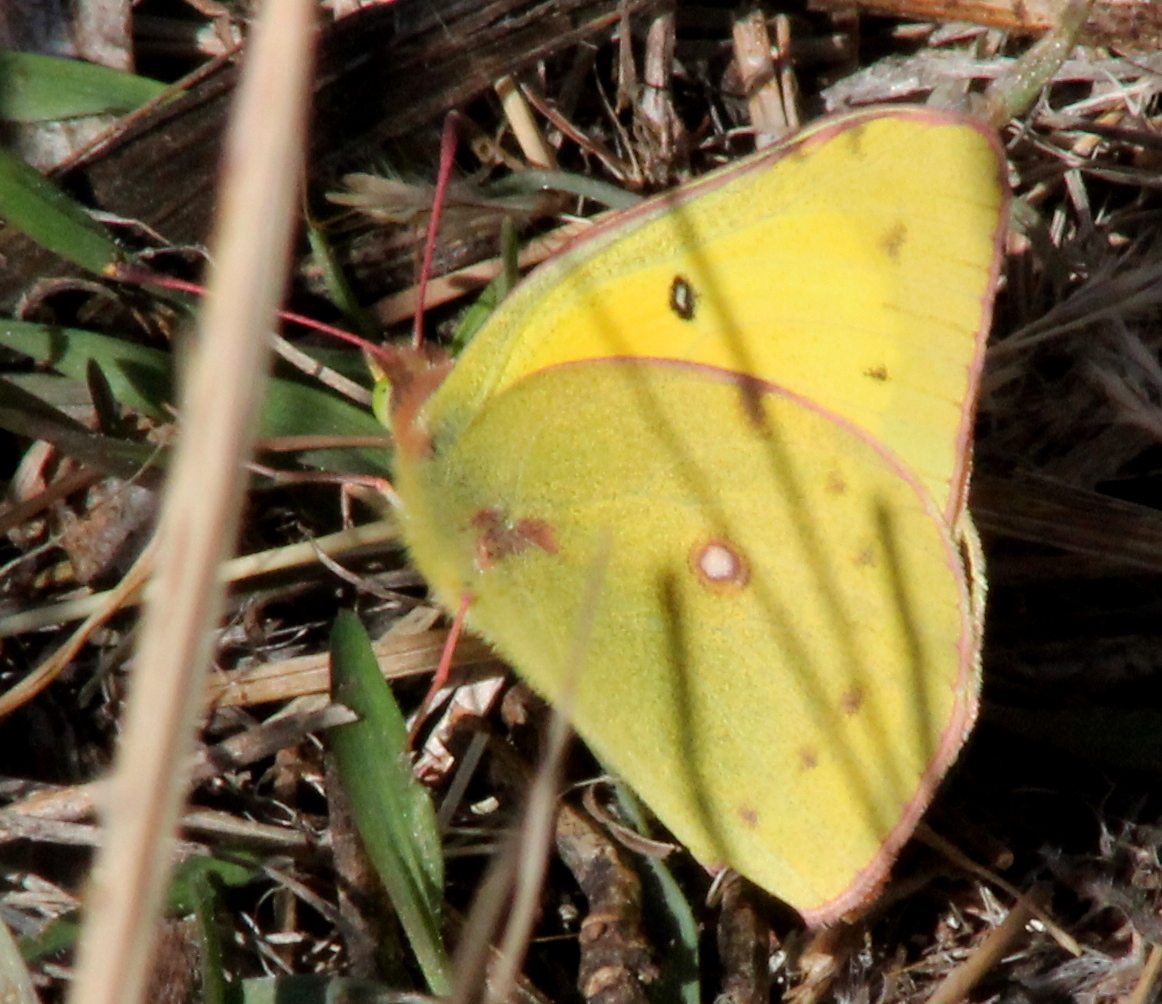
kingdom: Animalia
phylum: Arthropoda
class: Insecta
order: Lepidoptera
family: Pieridae
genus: Colias
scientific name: Colias eurytheme
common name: Alfalfa butterfly
